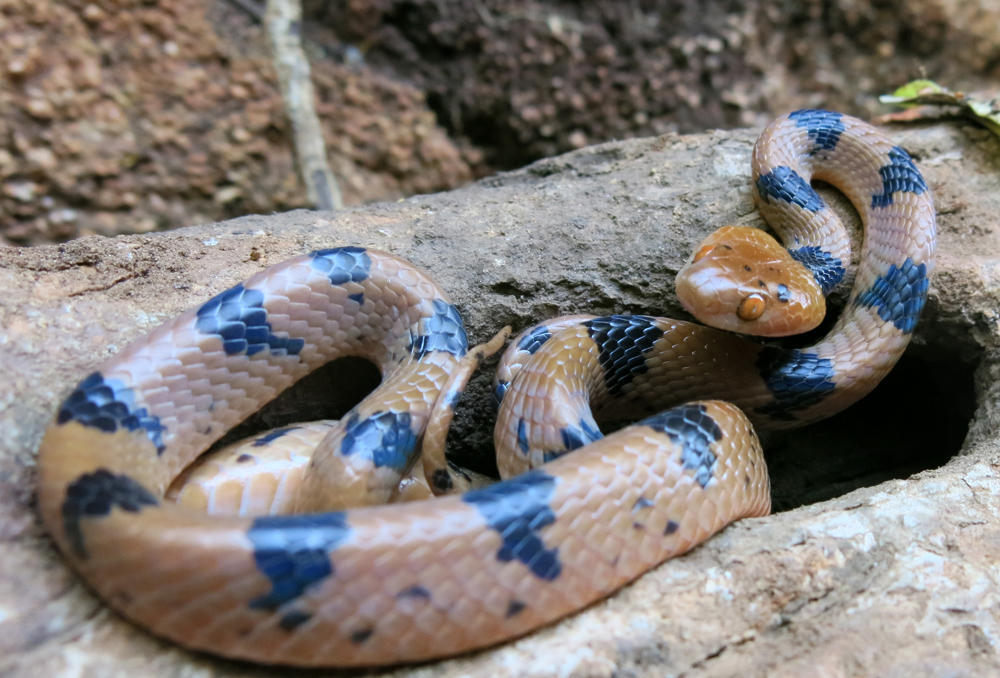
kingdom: Animalia
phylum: Chordata
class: Squamata
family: Colubridae
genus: Telescopus
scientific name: Telescopus semiannulatus
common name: Common tiger snake
